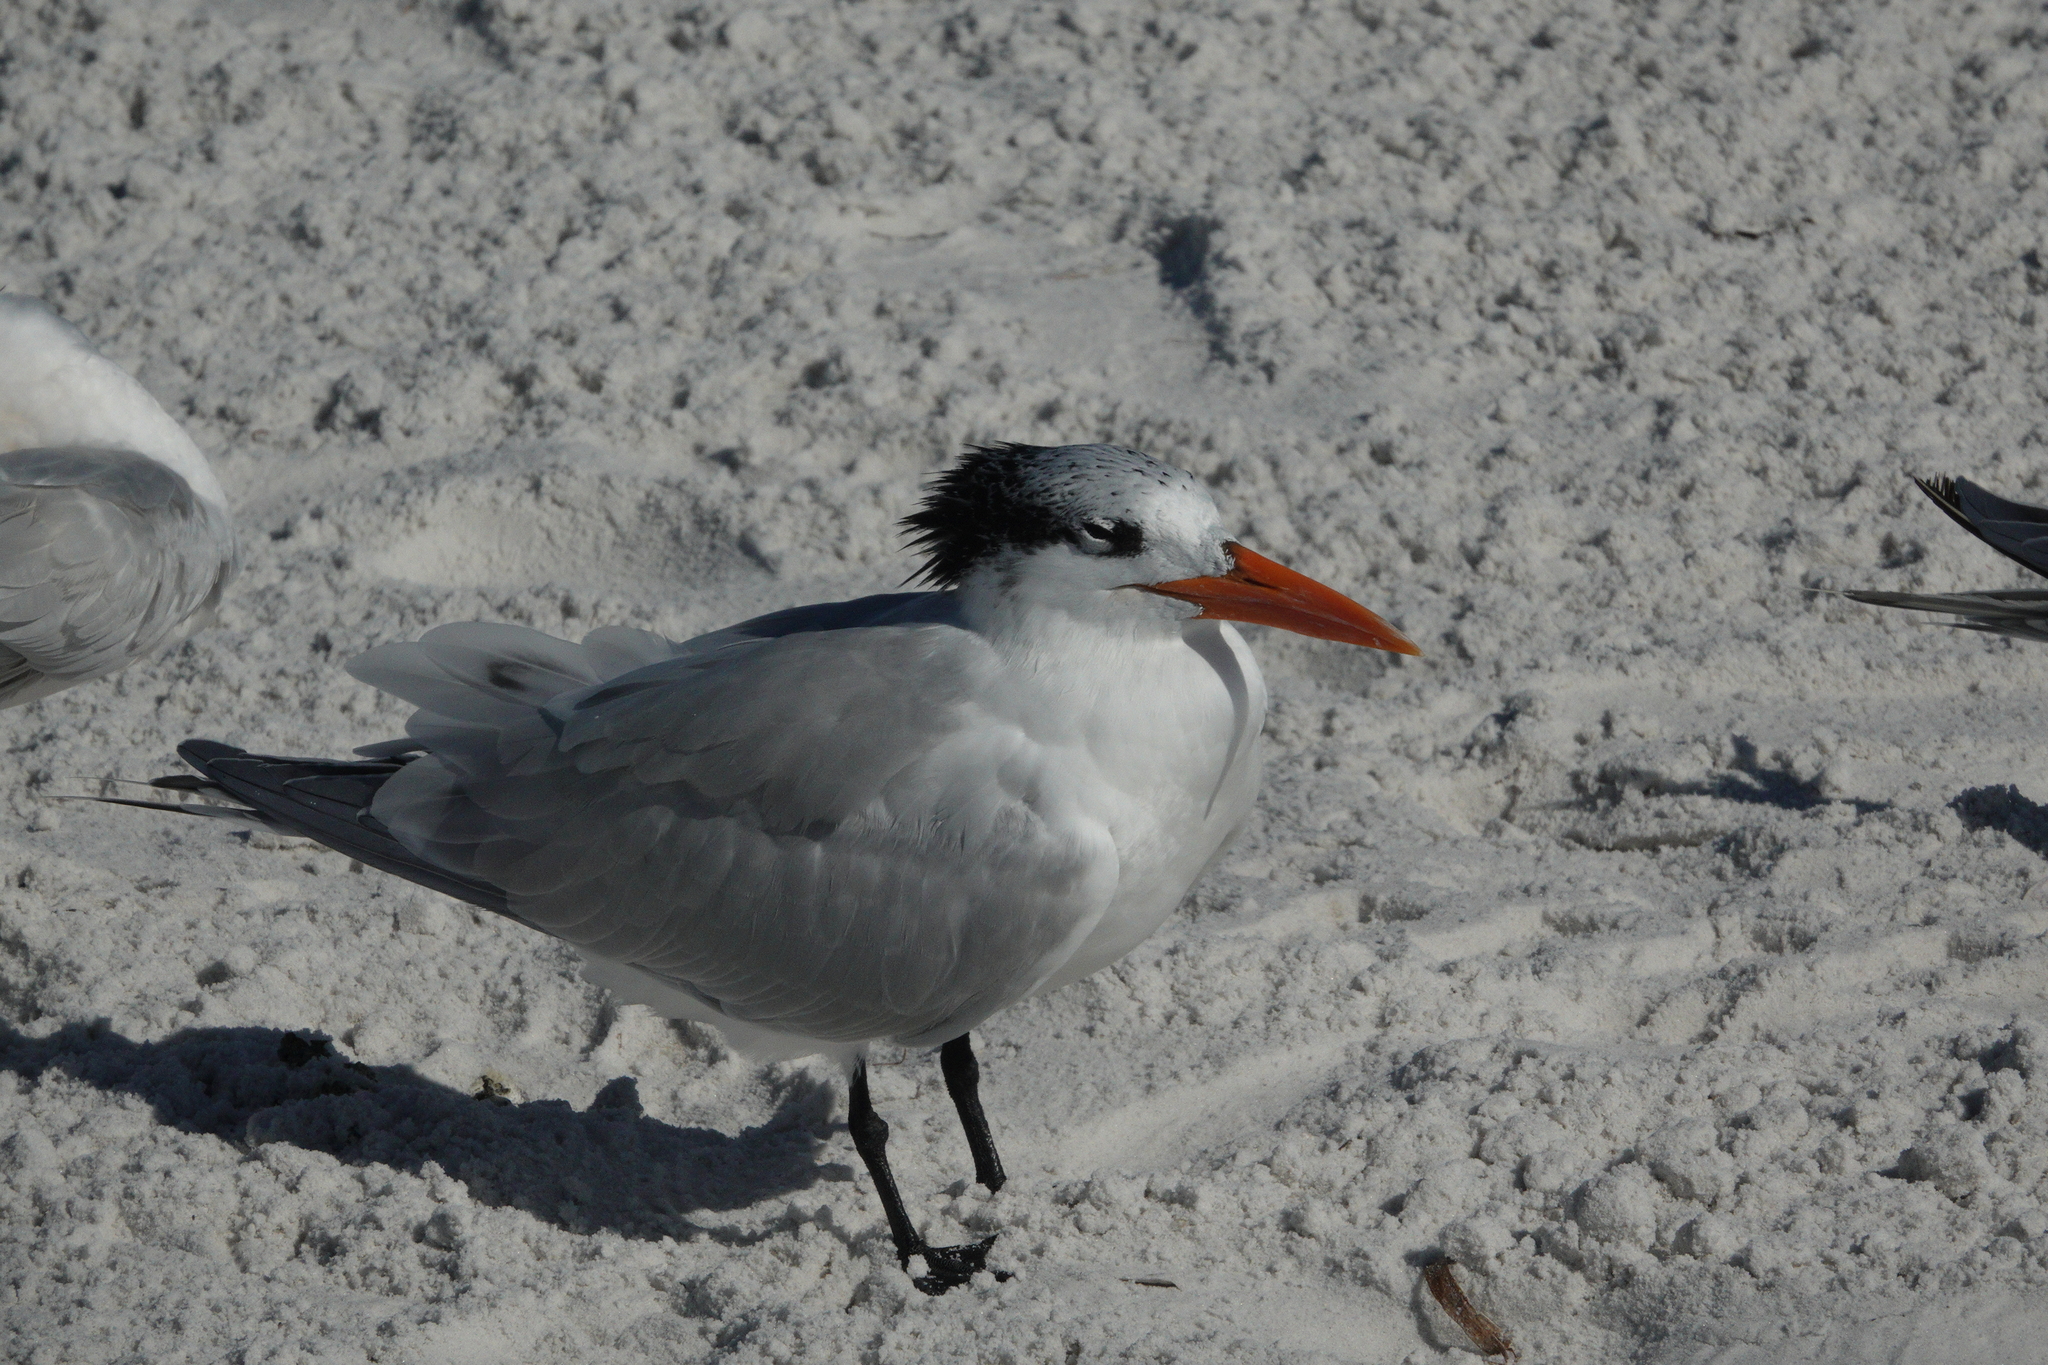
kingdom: Animalia
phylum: Chordata
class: Aves
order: Charadriiformes
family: Laridae
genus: Thalasseus
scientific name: Thalasseus maximus
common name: Royal tern
